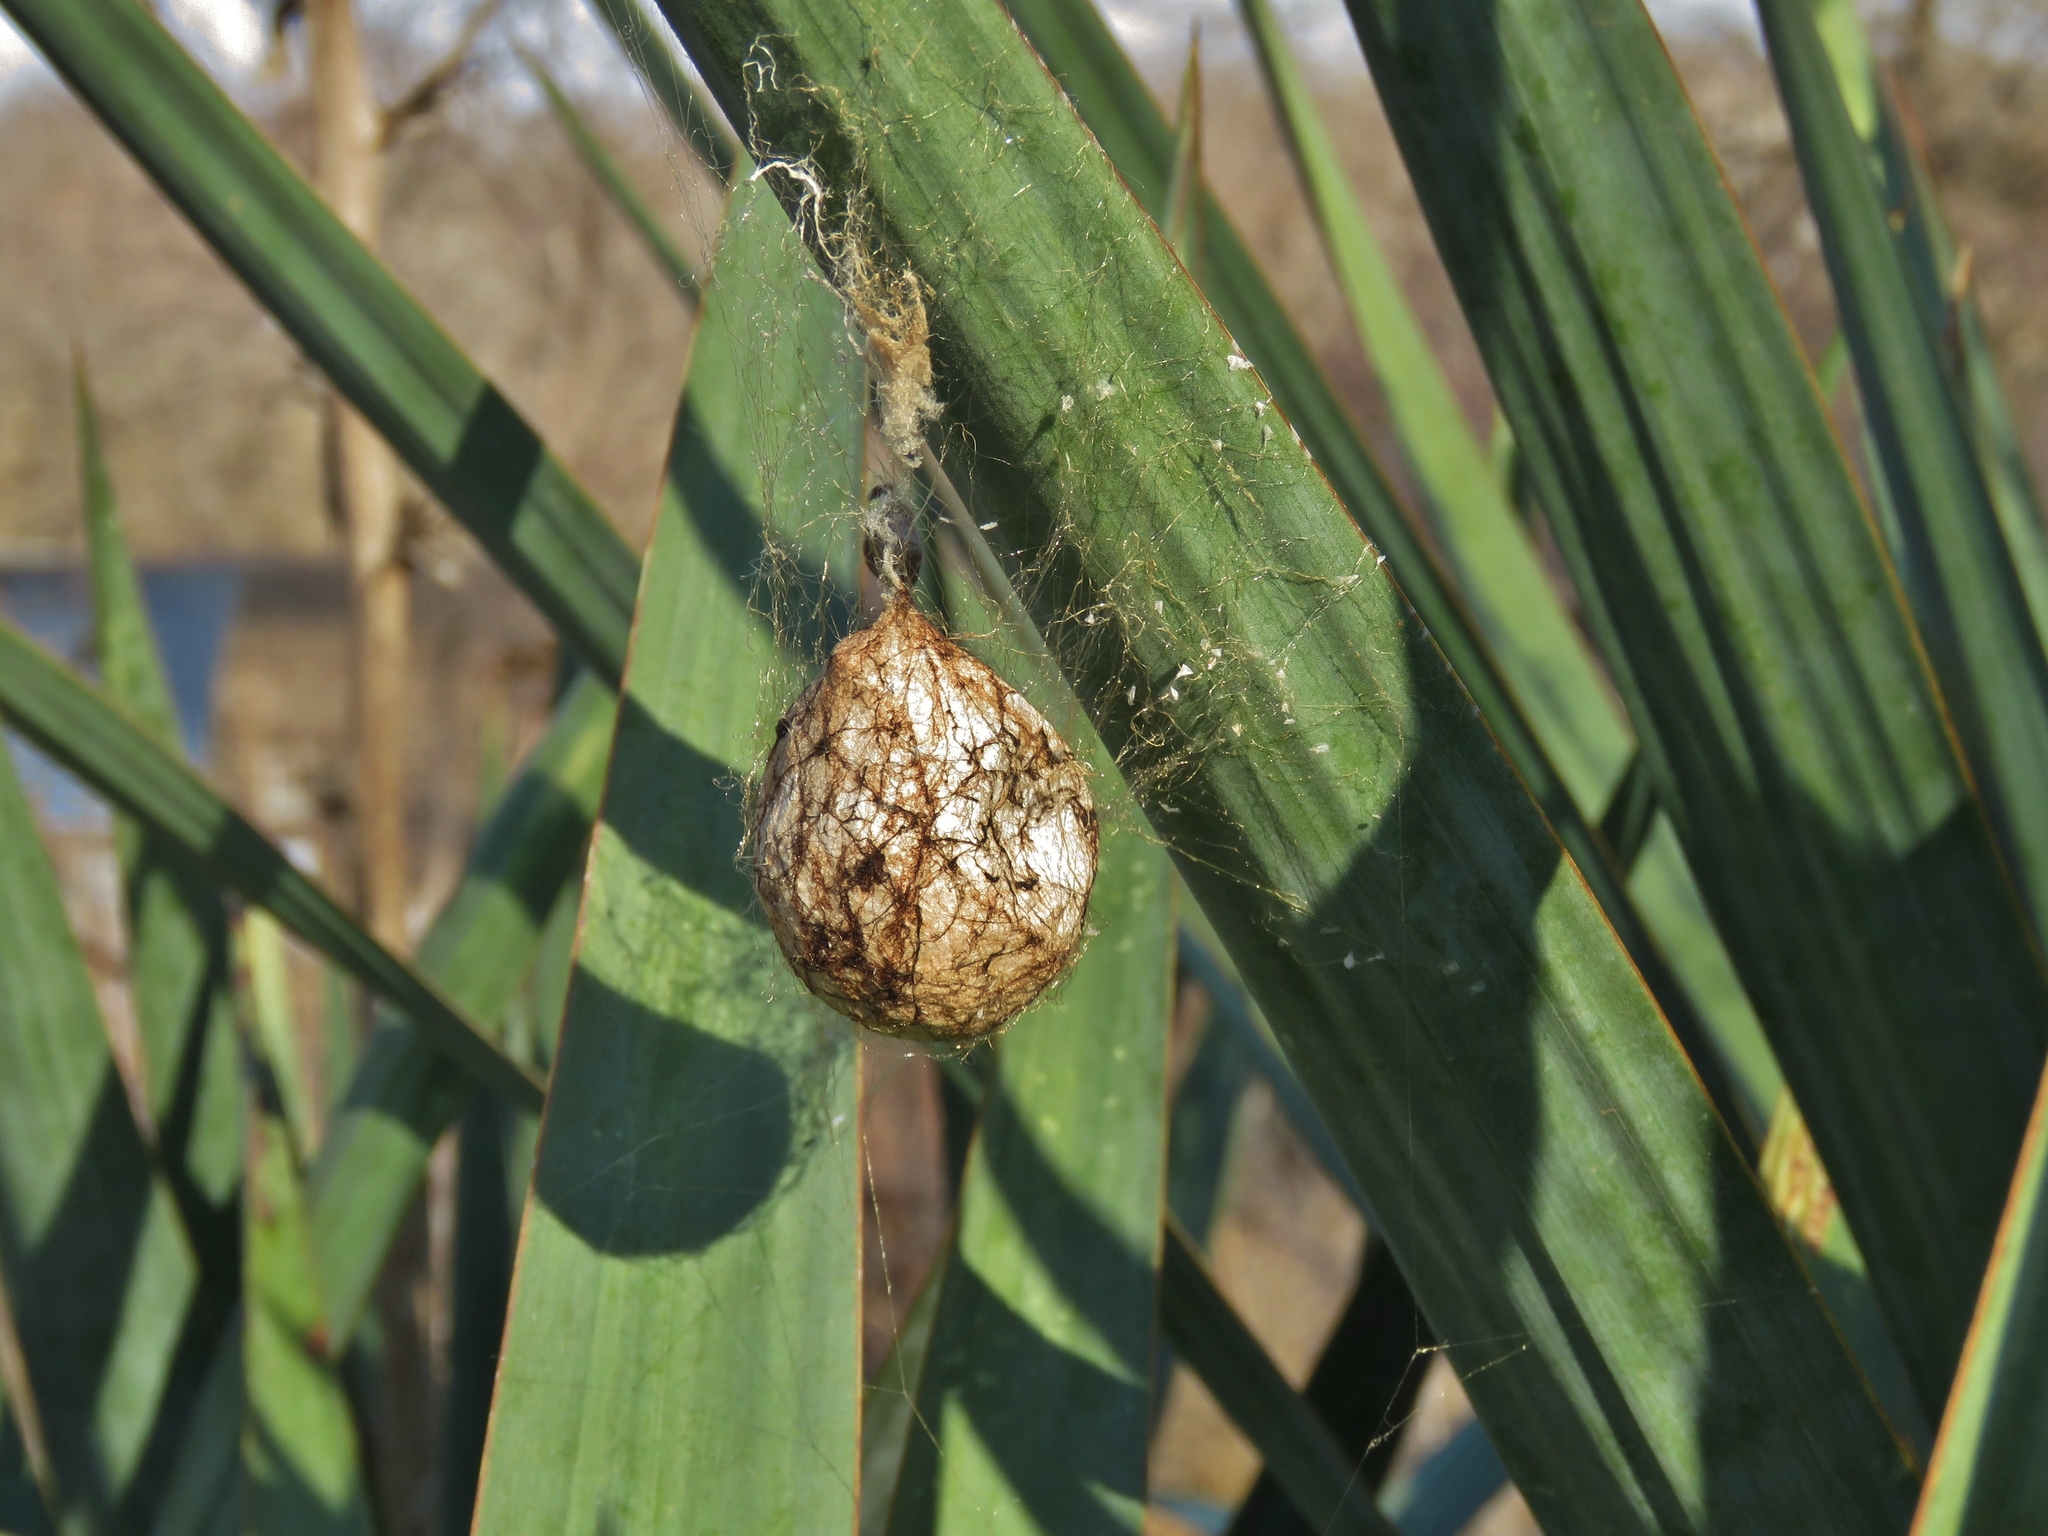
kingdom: Animalia
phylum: Arthropoda
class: Arachnida
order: Araneae
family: Araneidae
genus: Argiope
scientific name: Argiope aurantia
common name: Orb weavers
